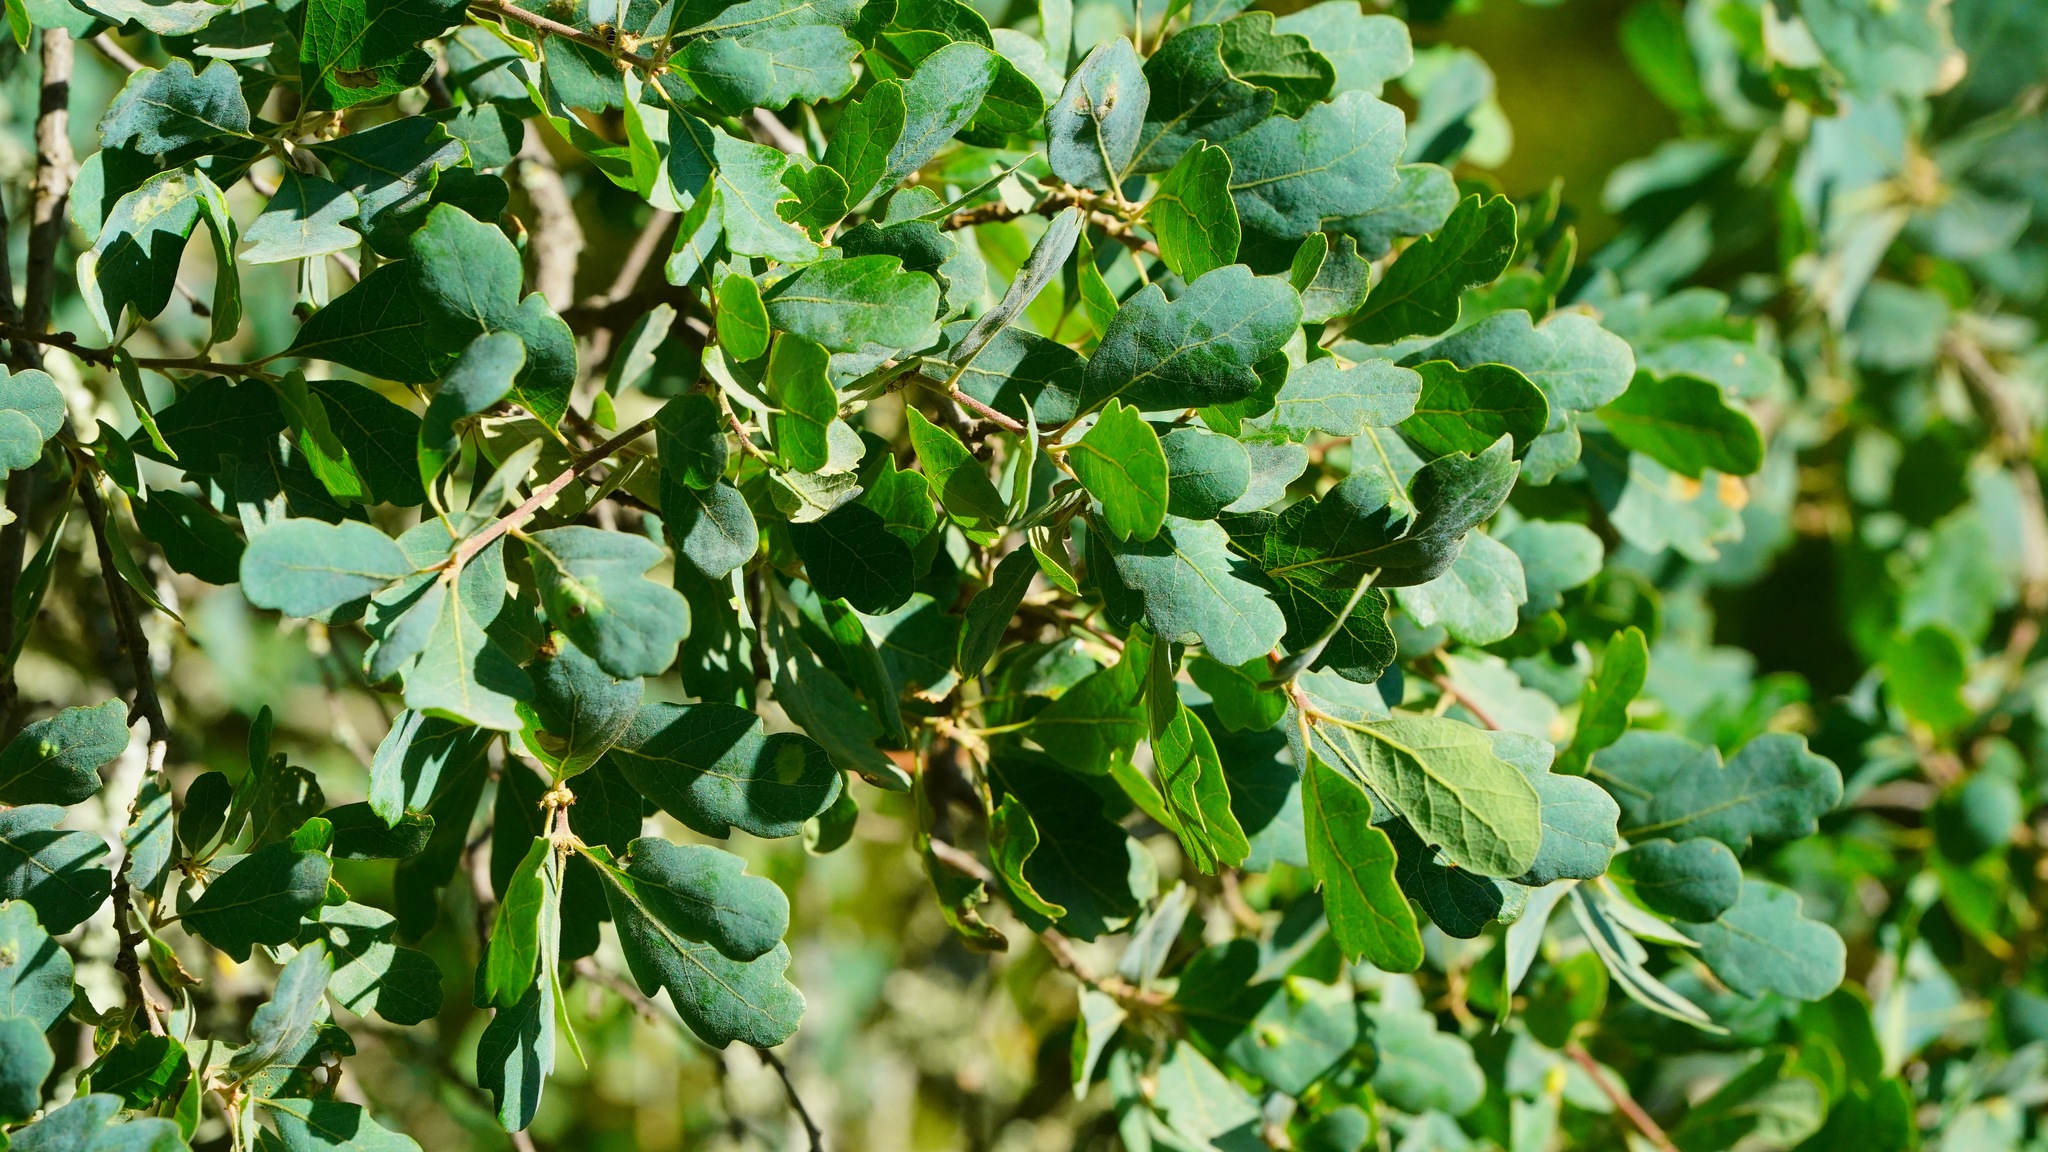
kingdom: Plantae
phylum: Tracheophyta
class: Magnoliopsida
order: Fagales
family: Fagaceae
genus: Quercus
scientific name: Quercus douglasii
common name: Blue oak
